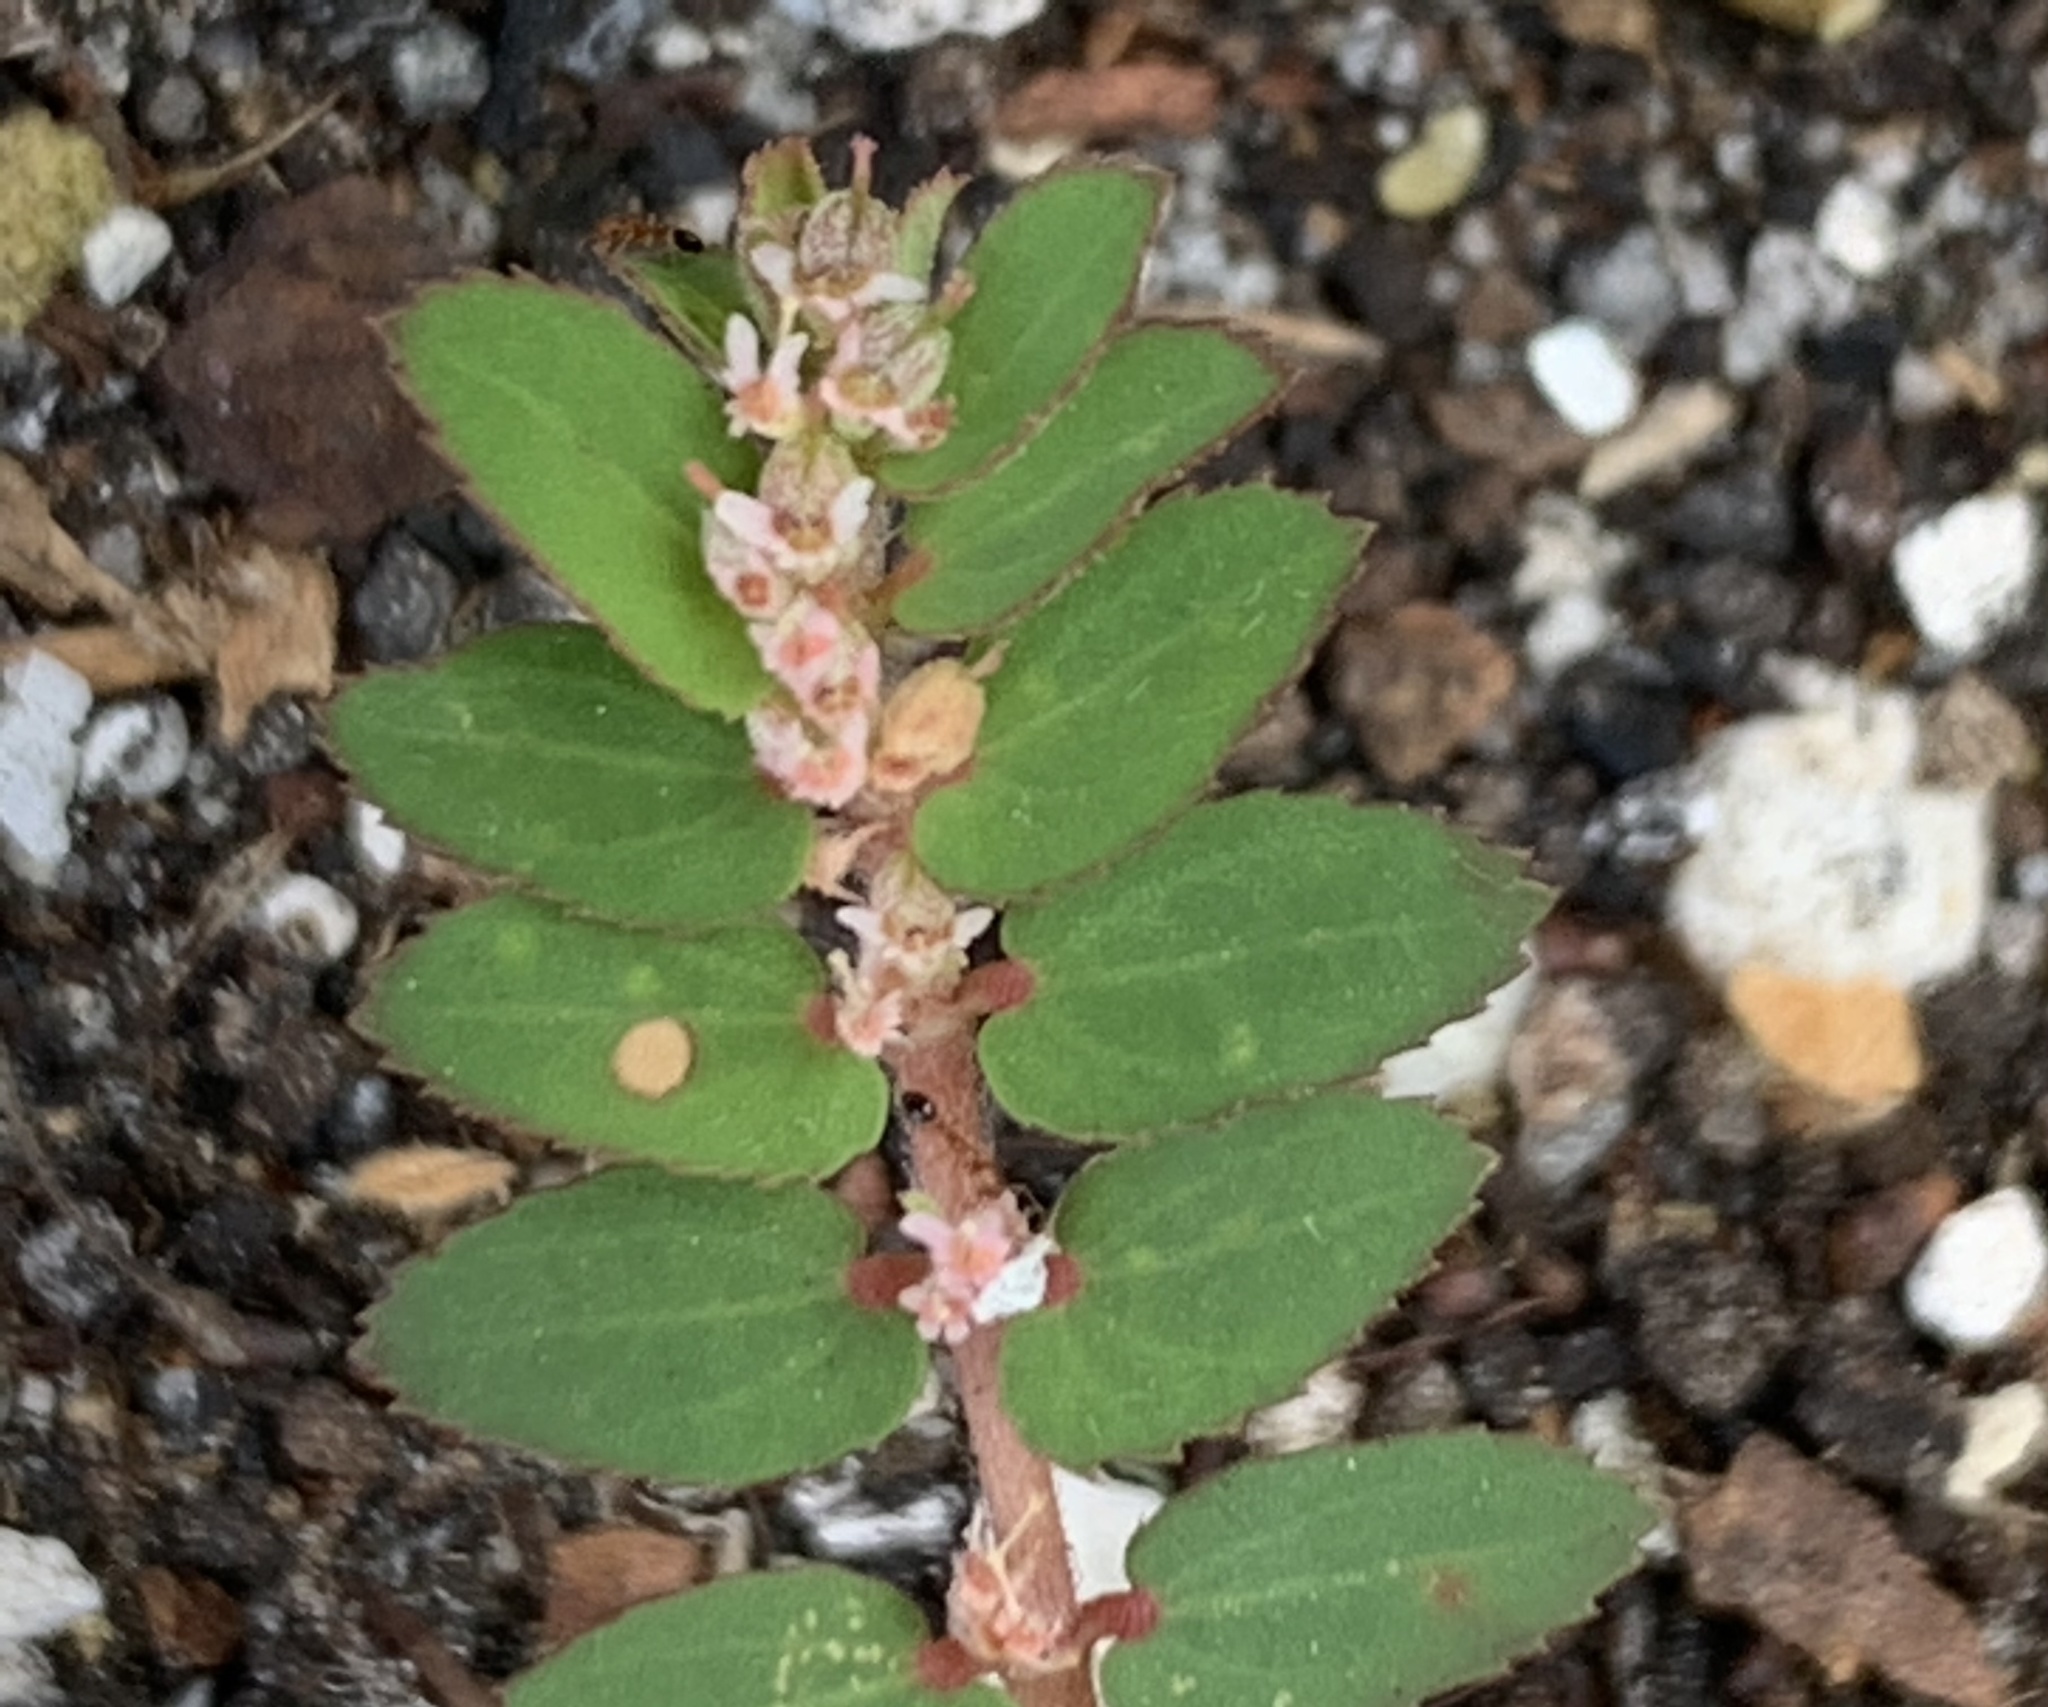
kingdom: Plantae
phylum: Tracheophyta
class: Magnoliopsida
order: Malpighiales
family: Euphorbiaceae
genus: Euphorbia
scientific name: Euphorbia thymifolia
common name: Gulf sandmat
